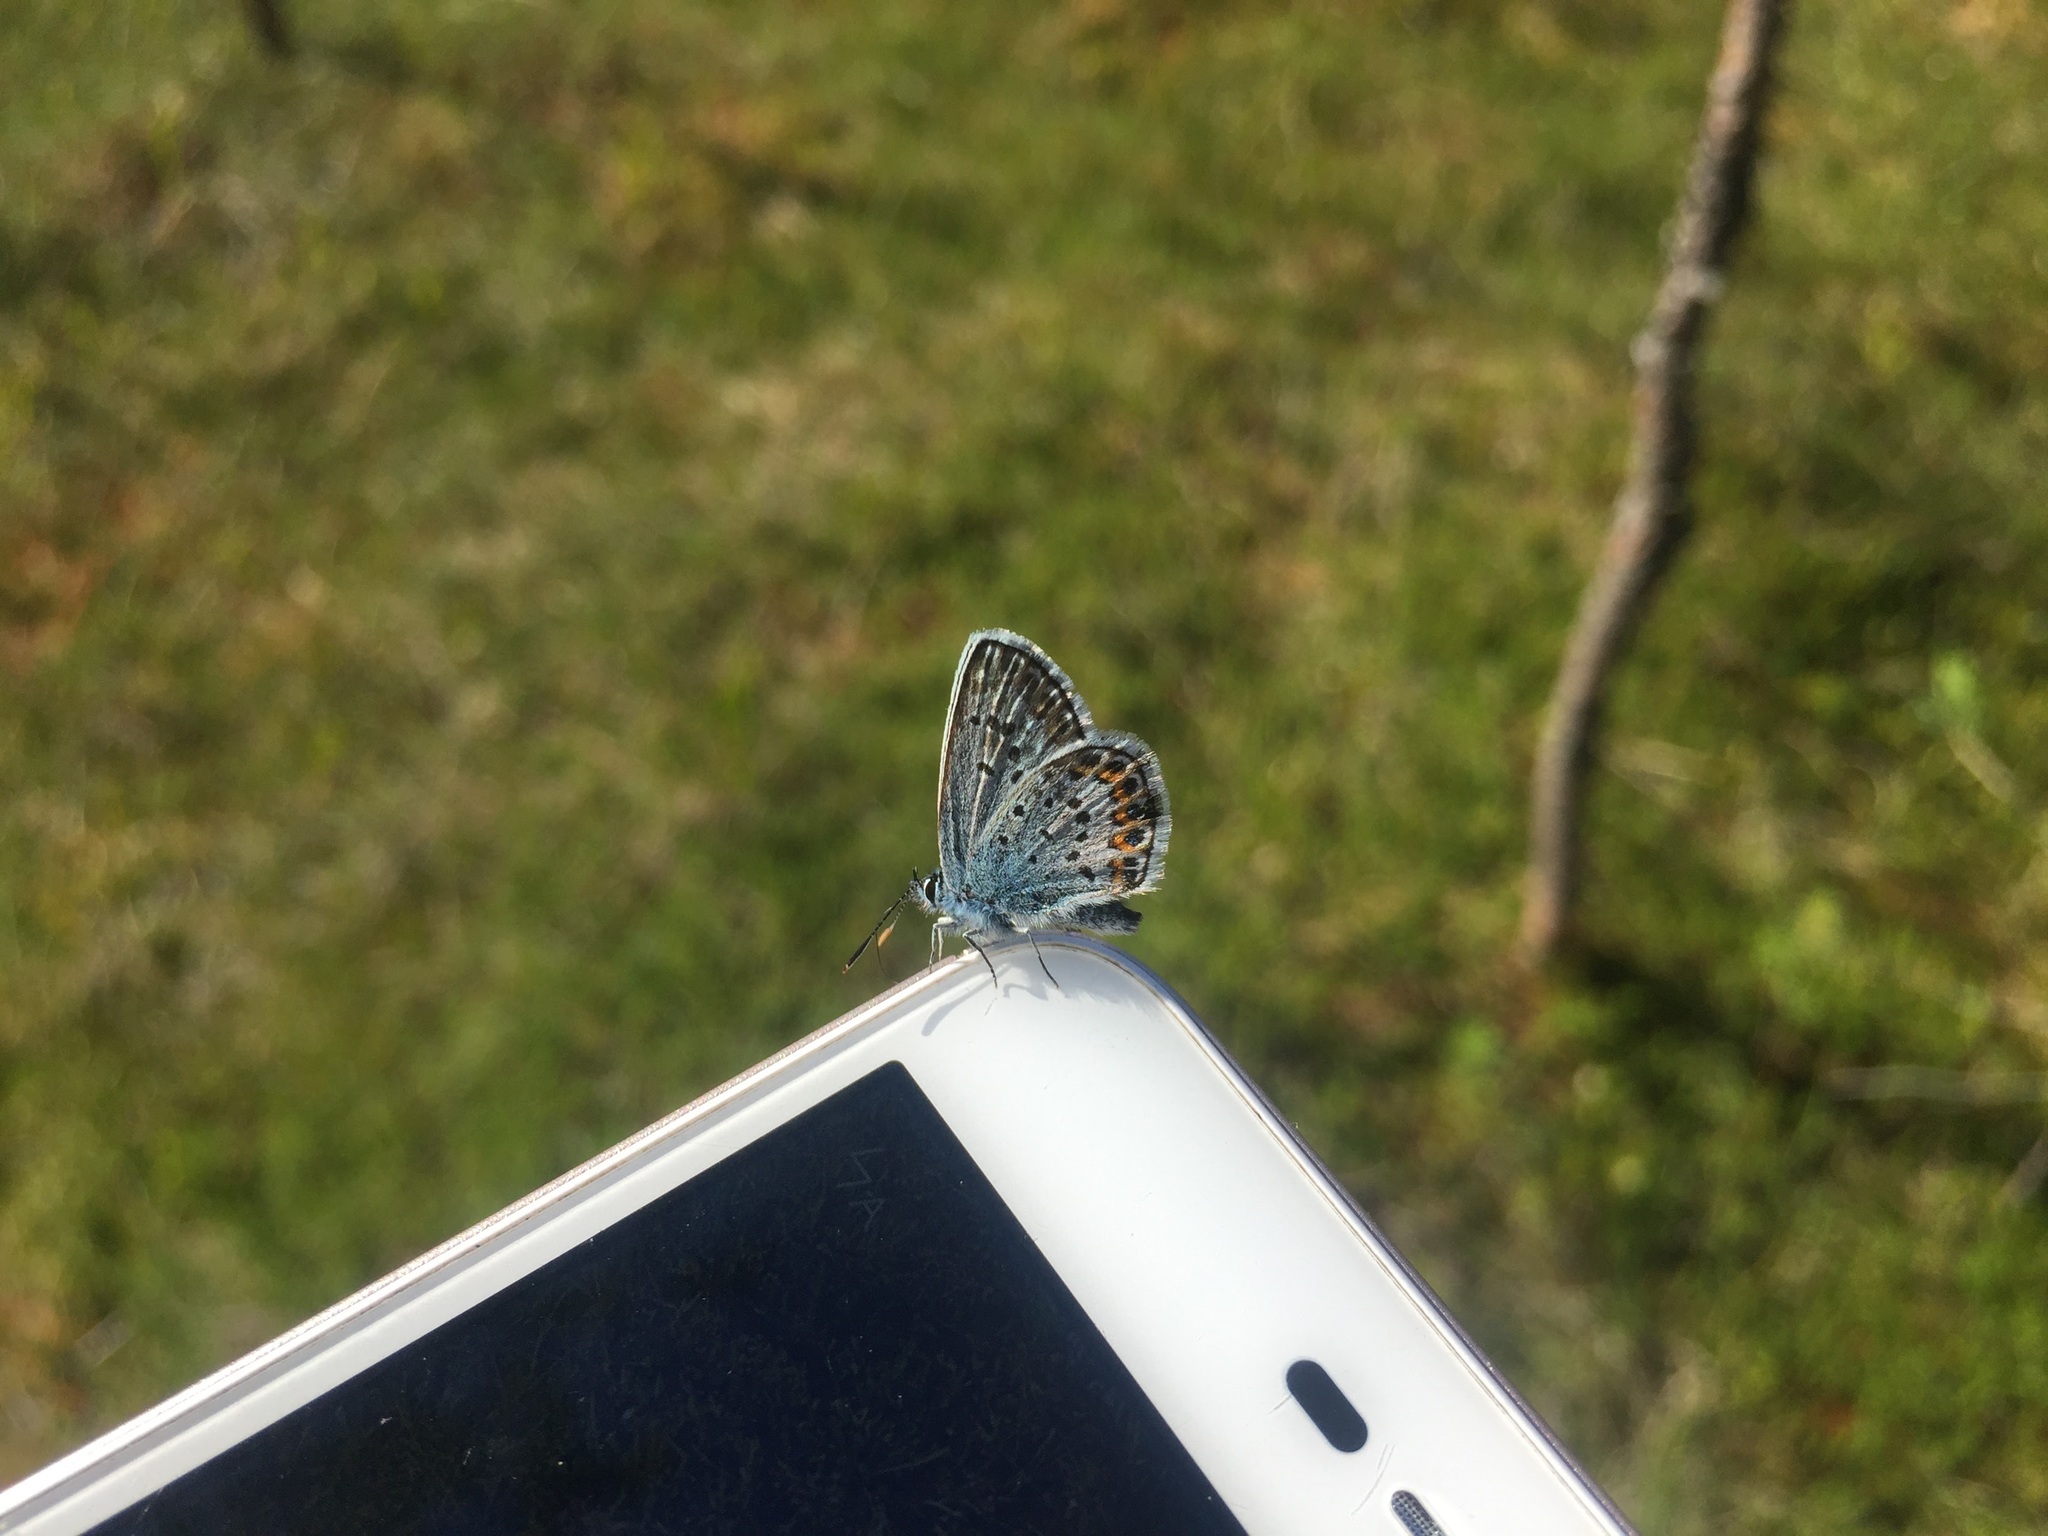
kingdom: Animalia
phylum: Arthropoda
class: Insecta
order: Lepidoptera
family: Lycaenidae
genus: Plebejus
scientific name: Plebejus argus
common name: Silver-studded blue
